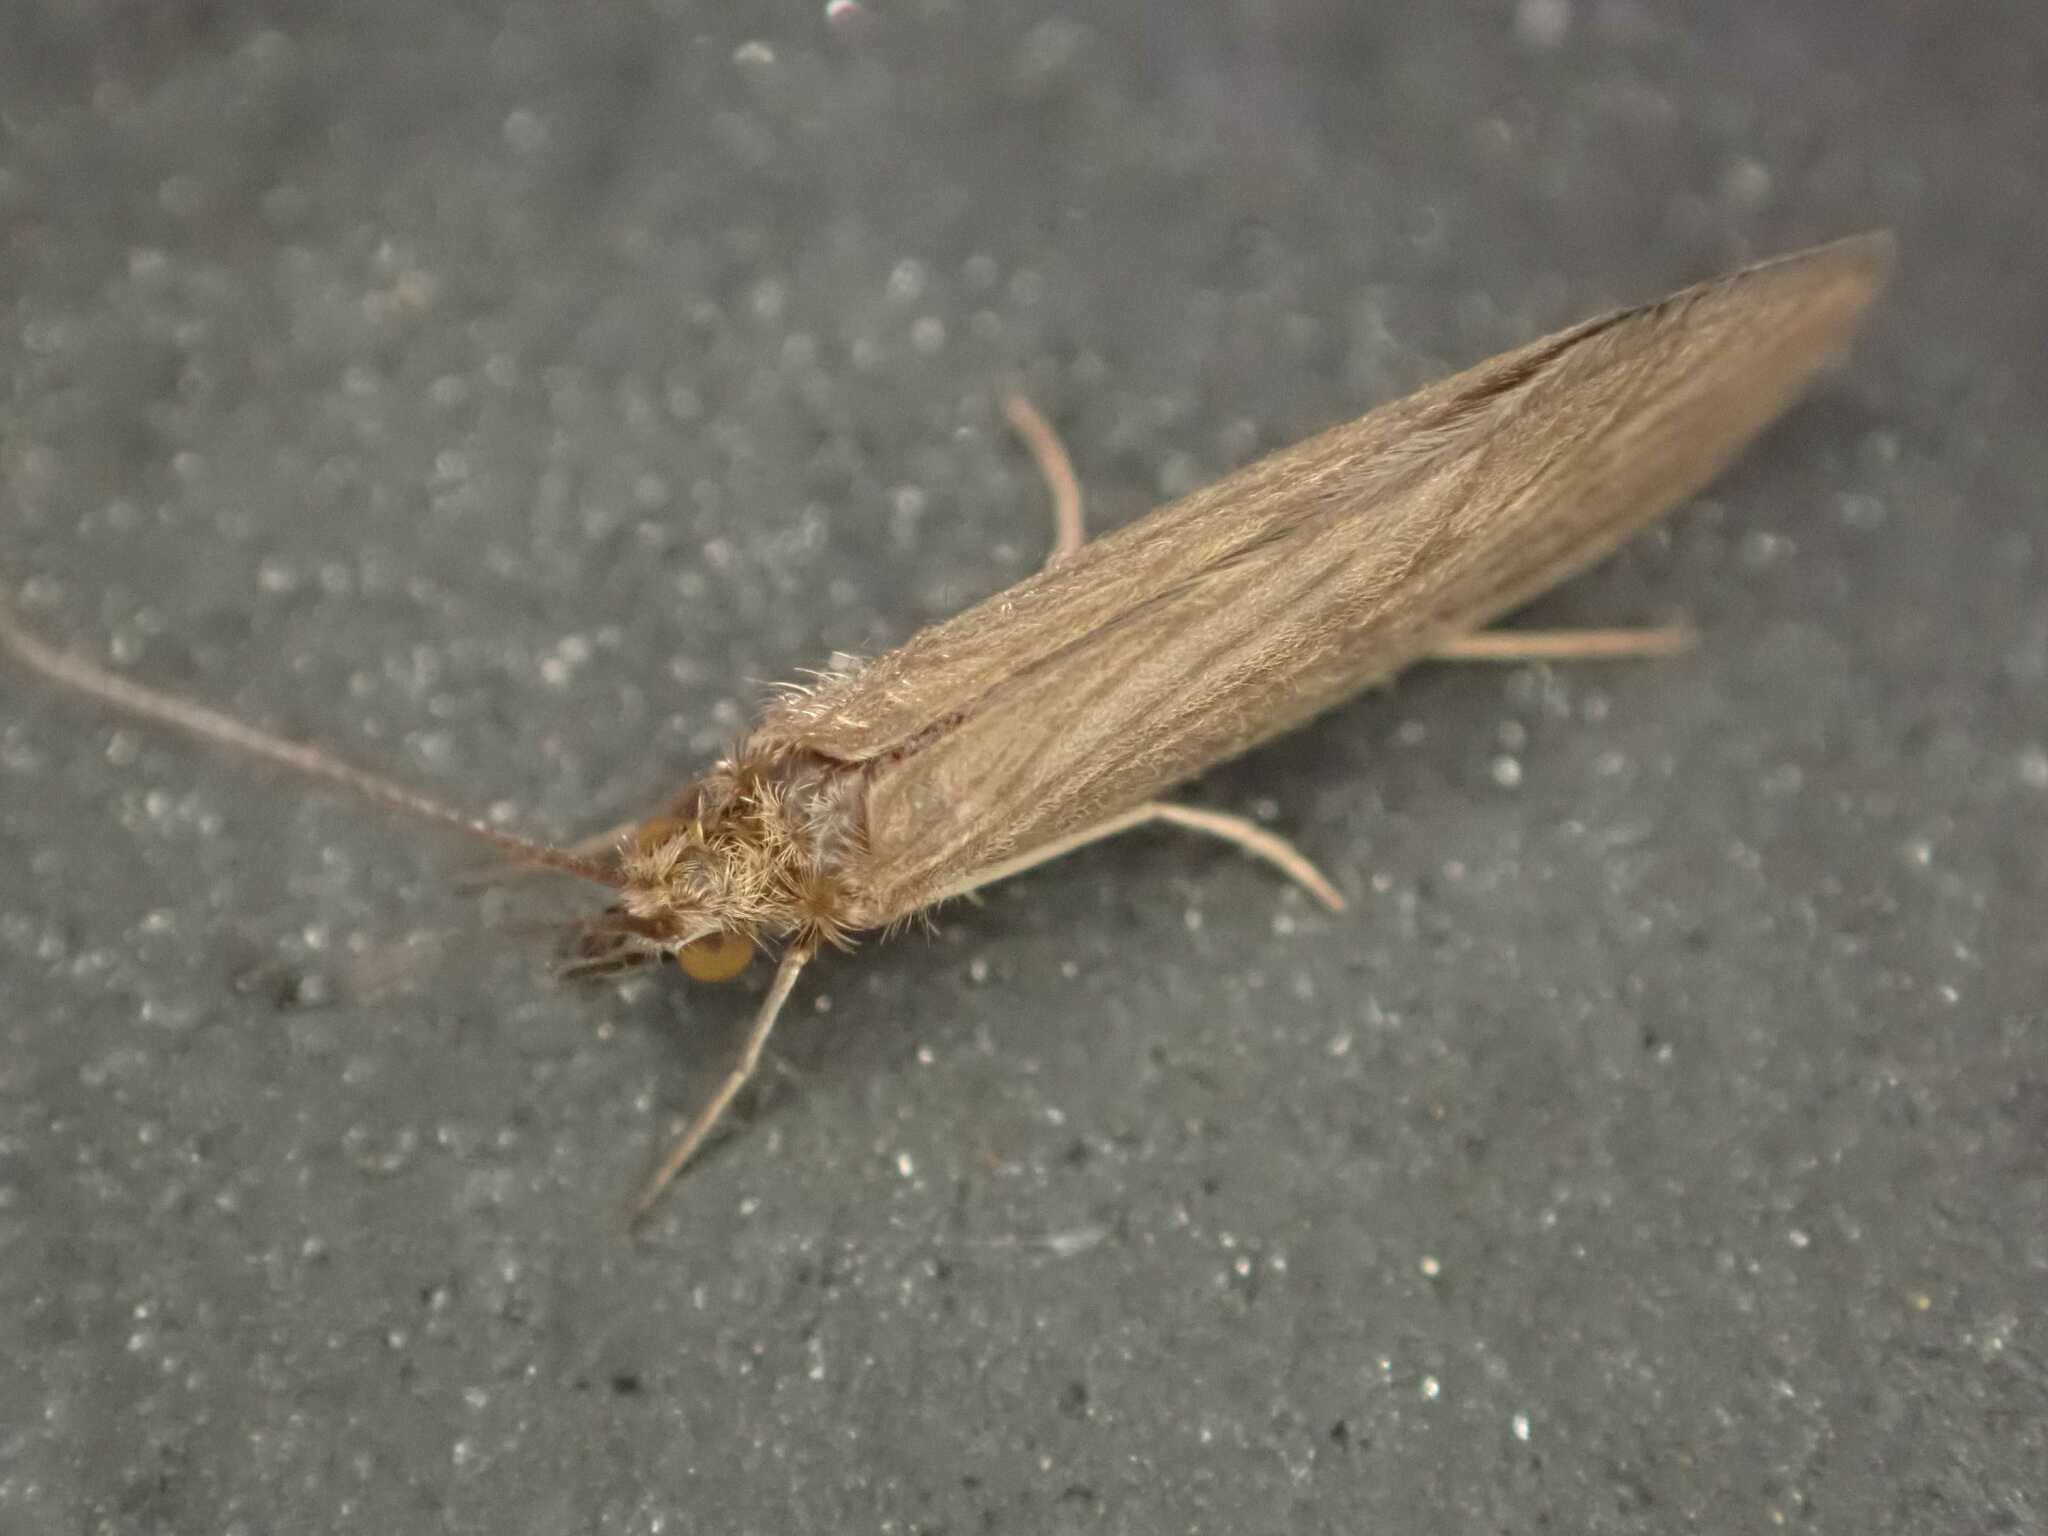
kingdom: Animalia
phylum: Arthropoda
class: Insecta
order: Trichoptera
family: Psychomyiidae
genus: Tinodes
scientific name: Tinodes waeneri
